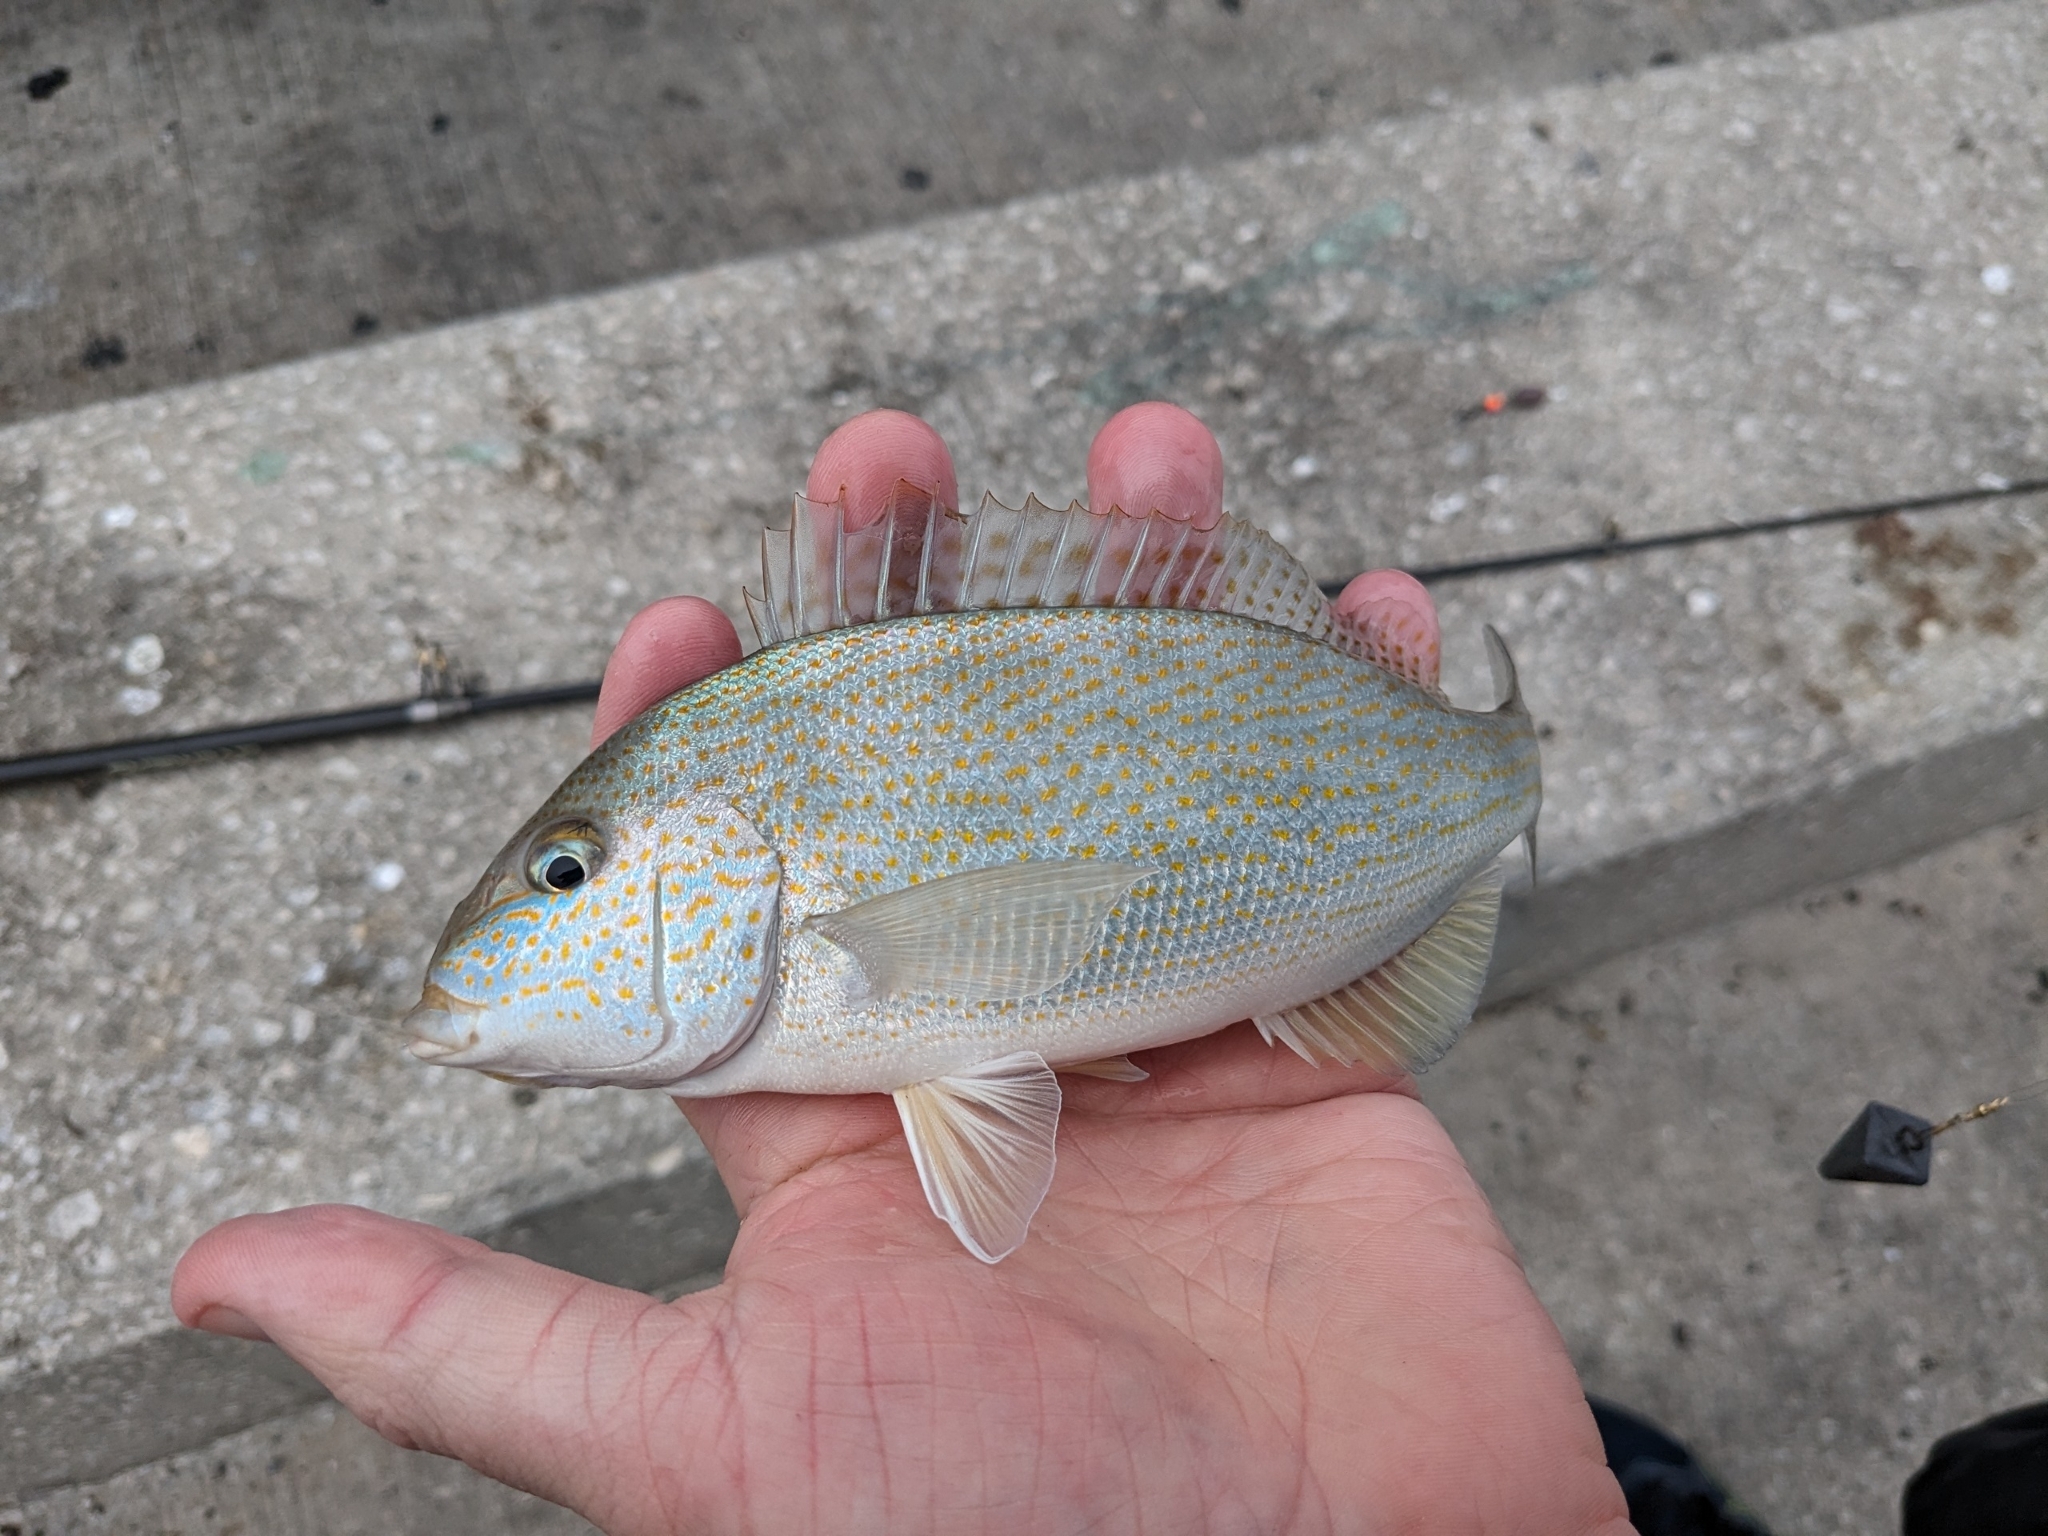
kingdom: Animalia
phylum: Chordata
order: Perciformes
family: Haemulidae
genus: Orthopristis
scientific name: Orthopristis chrysoptera
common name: Pigfish
